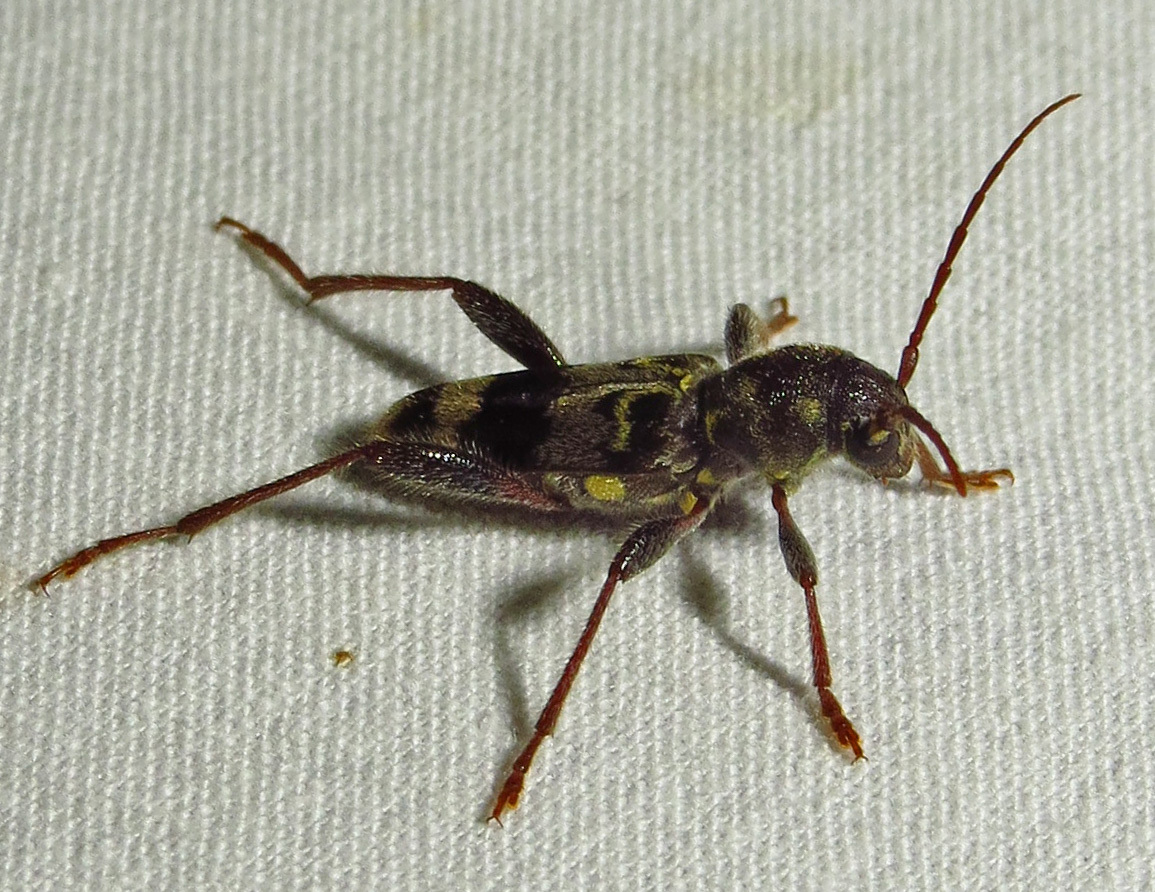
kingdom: Animalia
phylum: Arthropoda
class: Insecta
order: Coleoptera
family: Cerambycidae
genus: Xylotrechus
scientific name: Xylotrechus colonus
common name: Long-horned beetle
